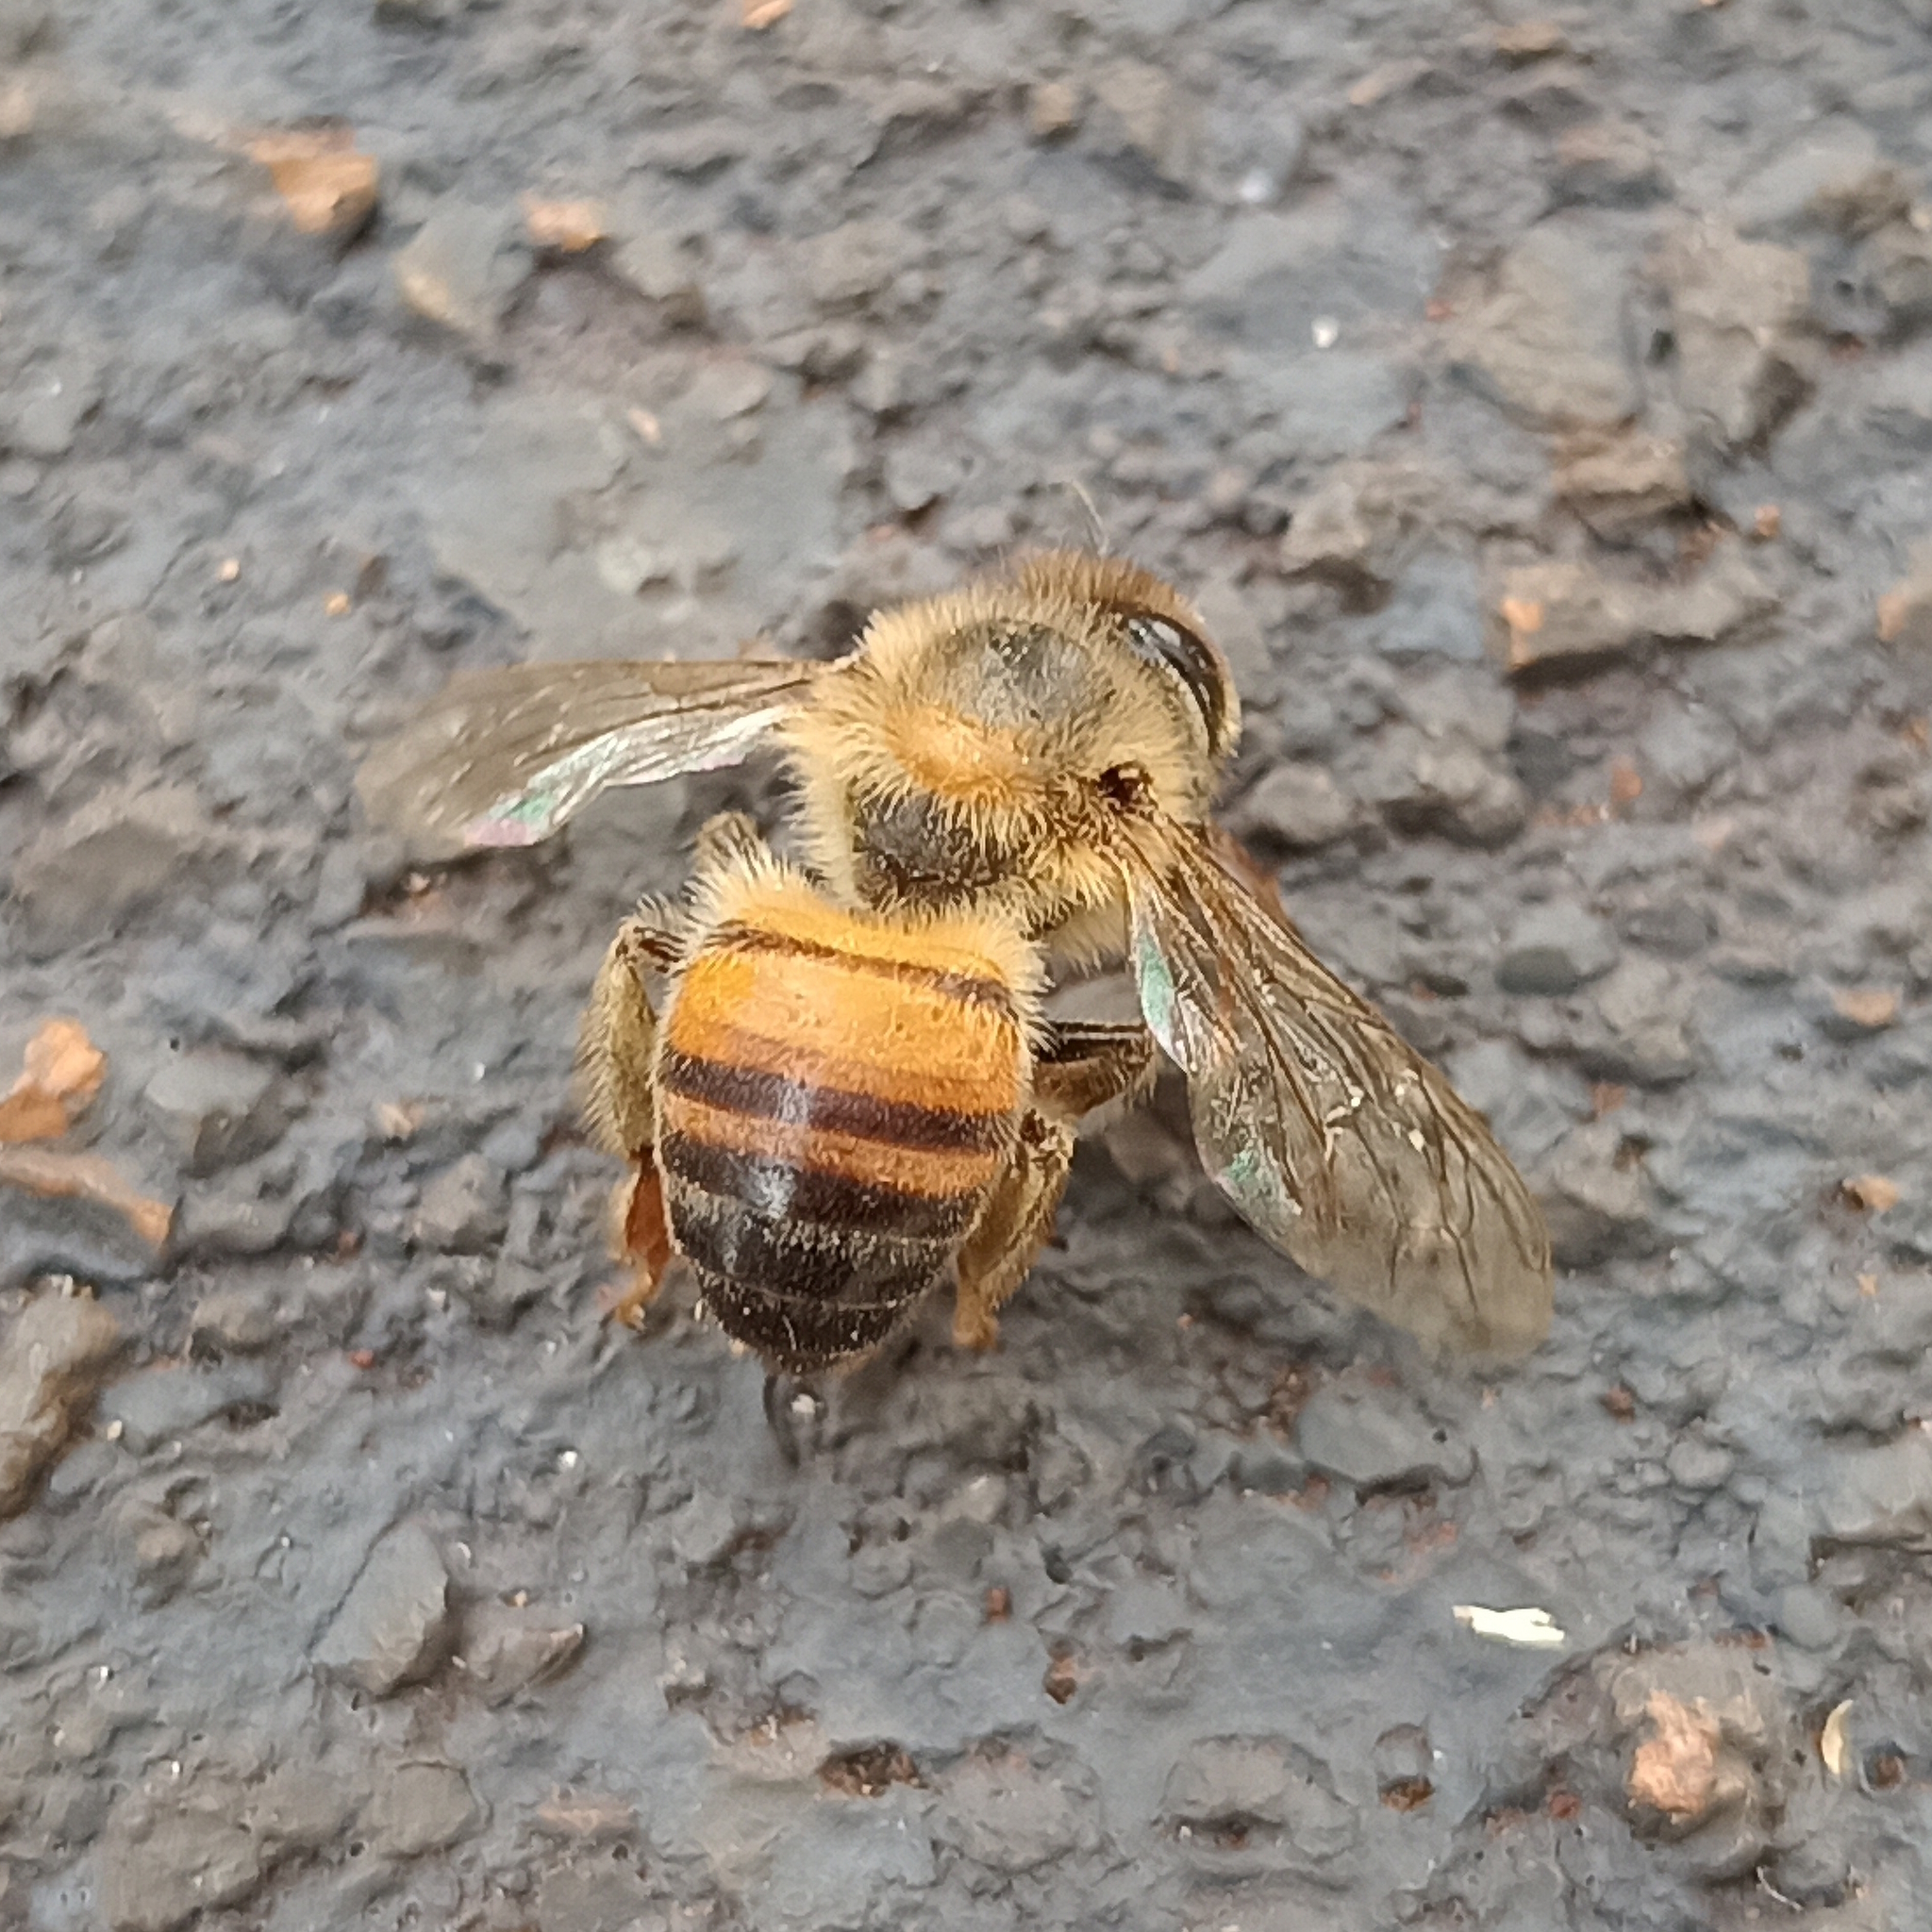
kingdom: Animalia
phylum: Arthropoda
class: Insecta
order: Hymenoptera
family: Apidae
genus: Apis
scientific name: Apis mellifera
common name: Honey bee
